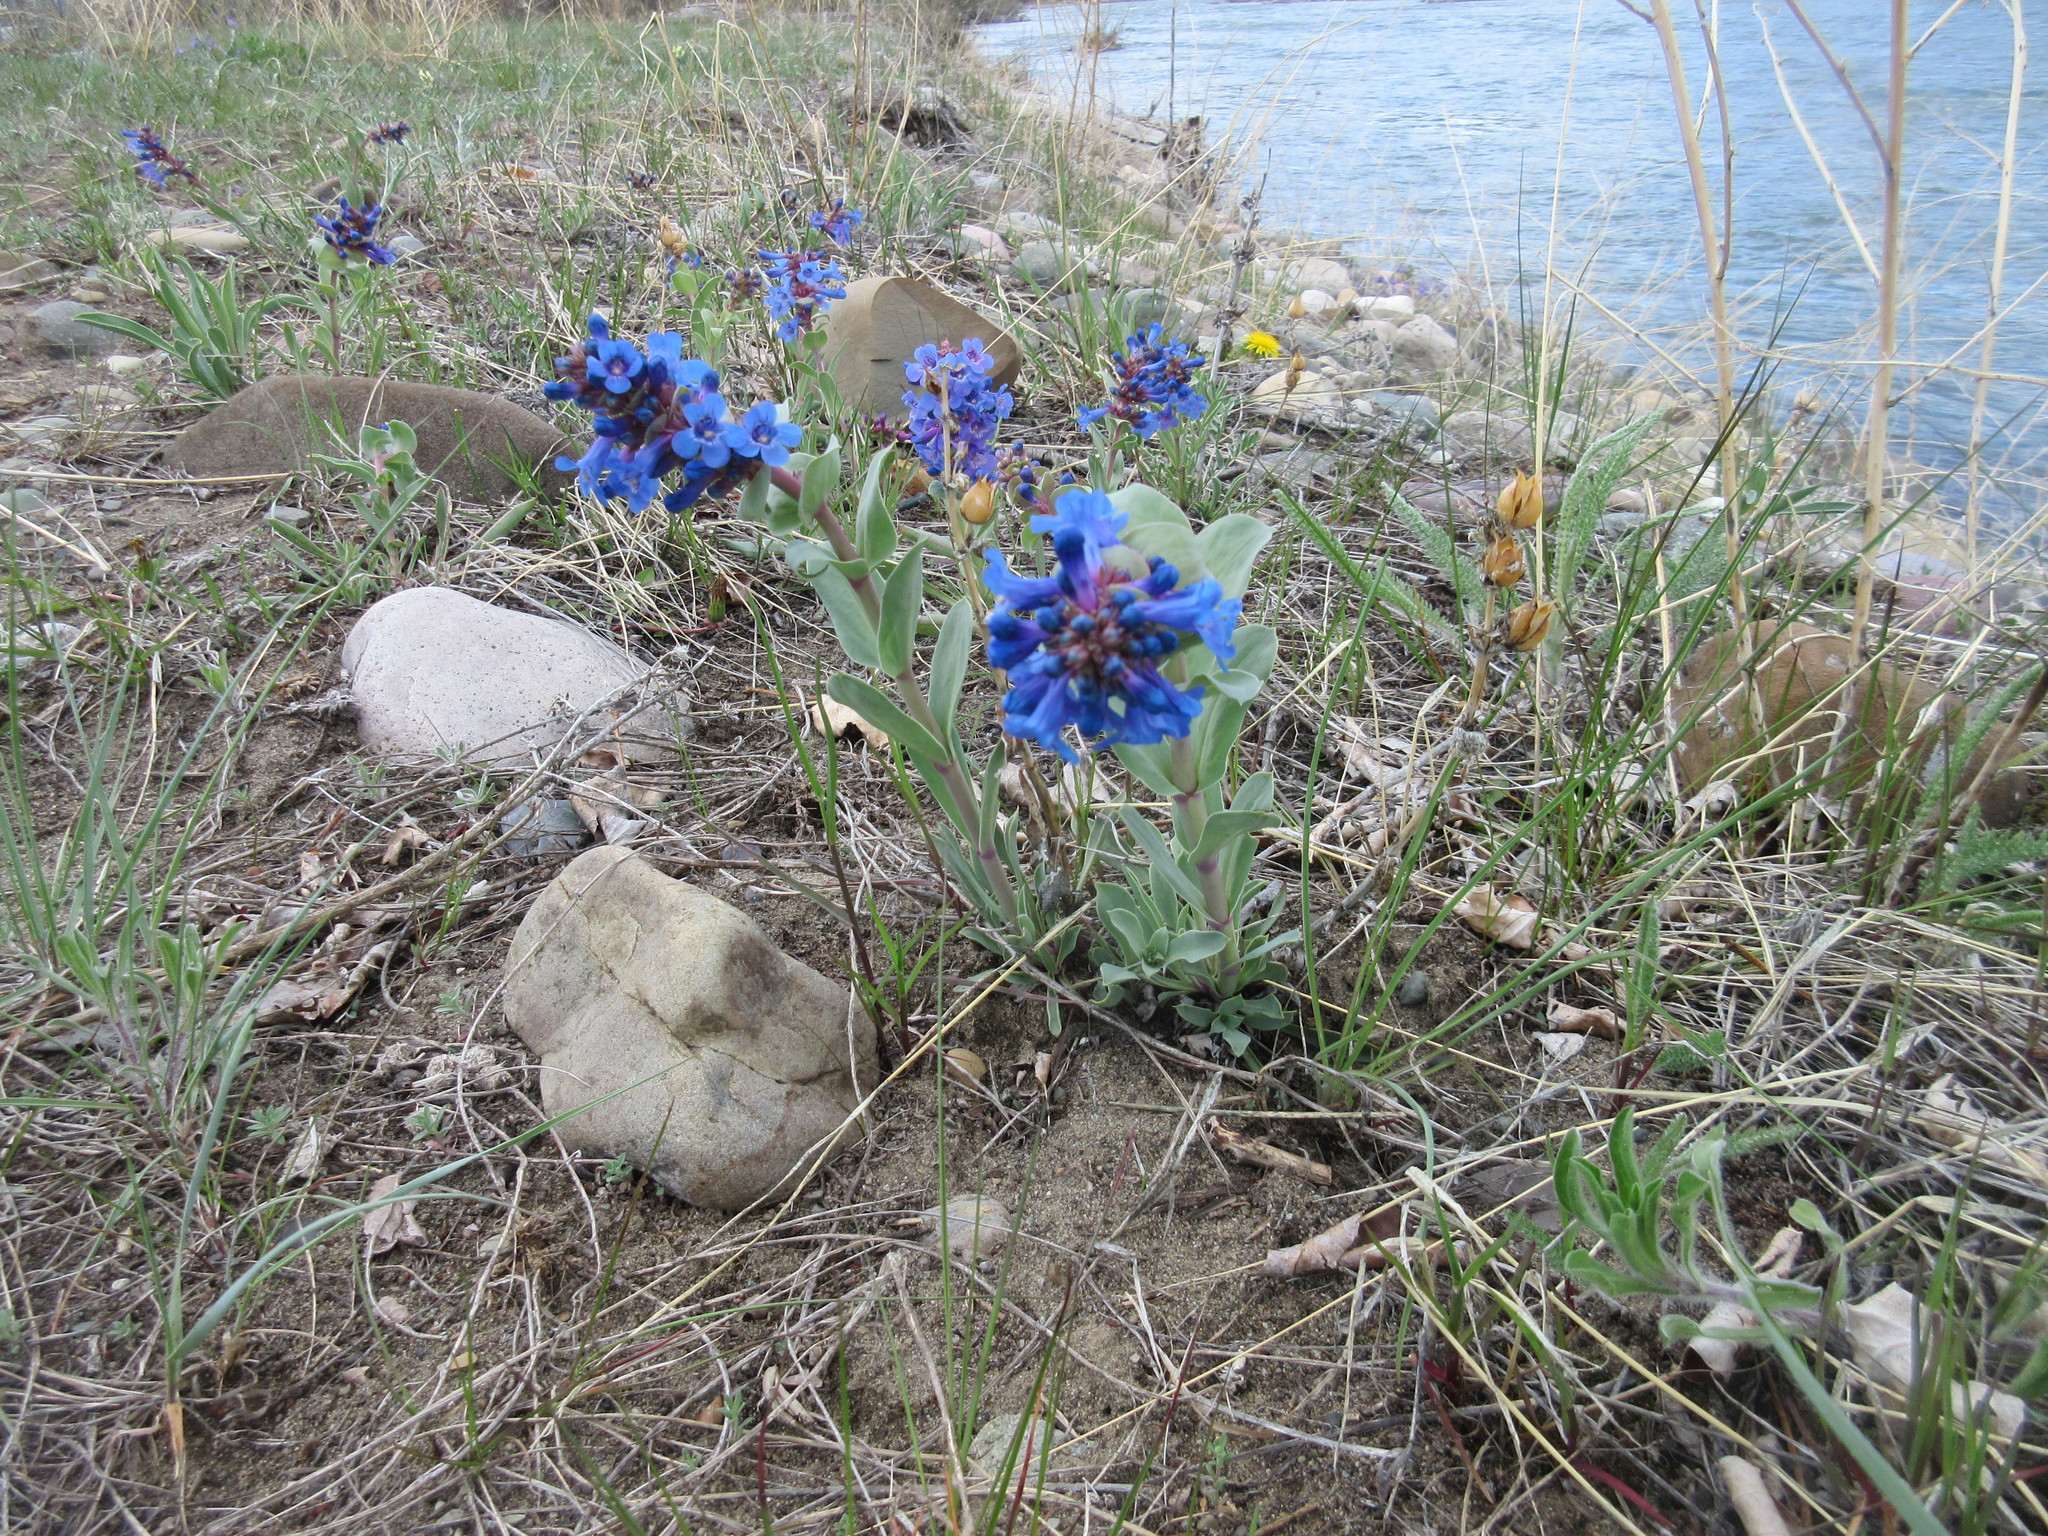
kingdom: Plantae
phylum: Tracheophyta
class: Magnoliopsida
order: Lamiales
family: Plantaginaceae
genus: Penstemon
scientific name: Penstemon nitidus
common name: Shining penstemon
